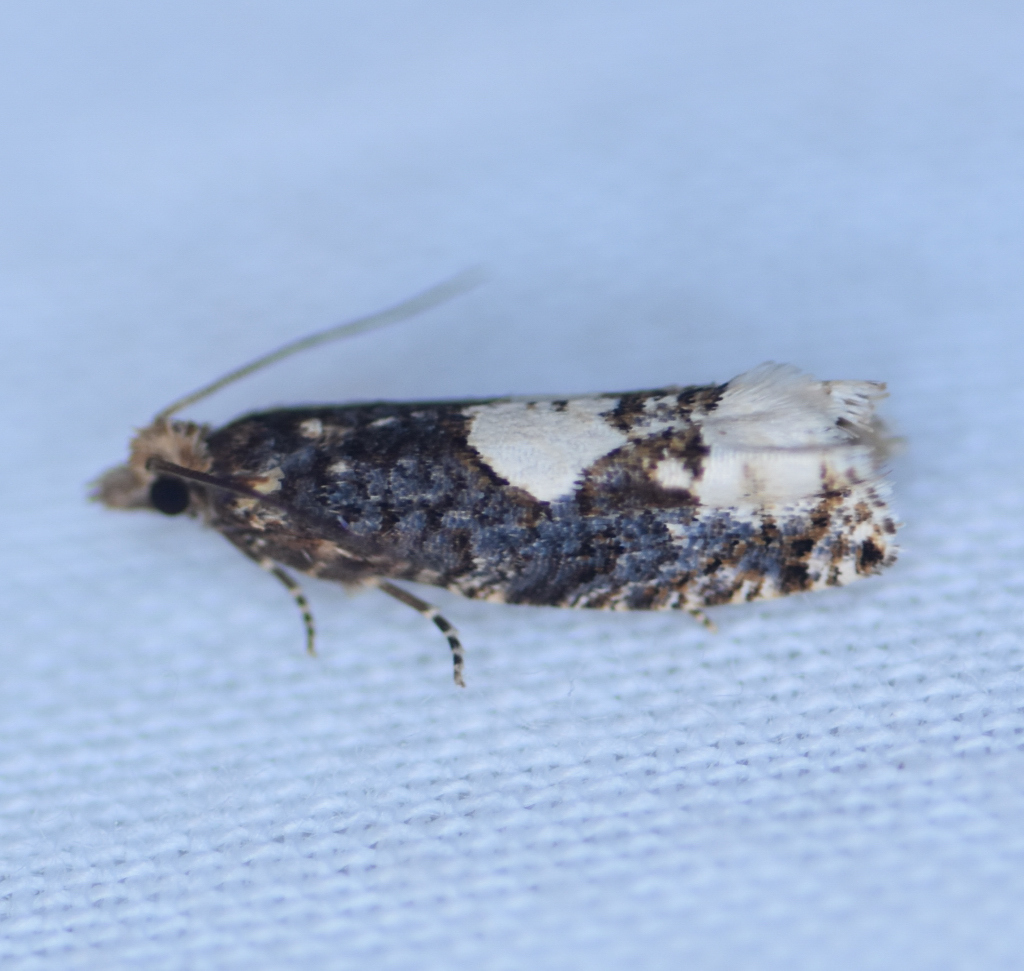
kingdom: Animalia
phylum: Arthropoda
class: Insecta
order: Lepidoptera
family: Tortricidae
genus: Epinotia
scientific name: Epinotia trigonella
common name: White-blotch bell
